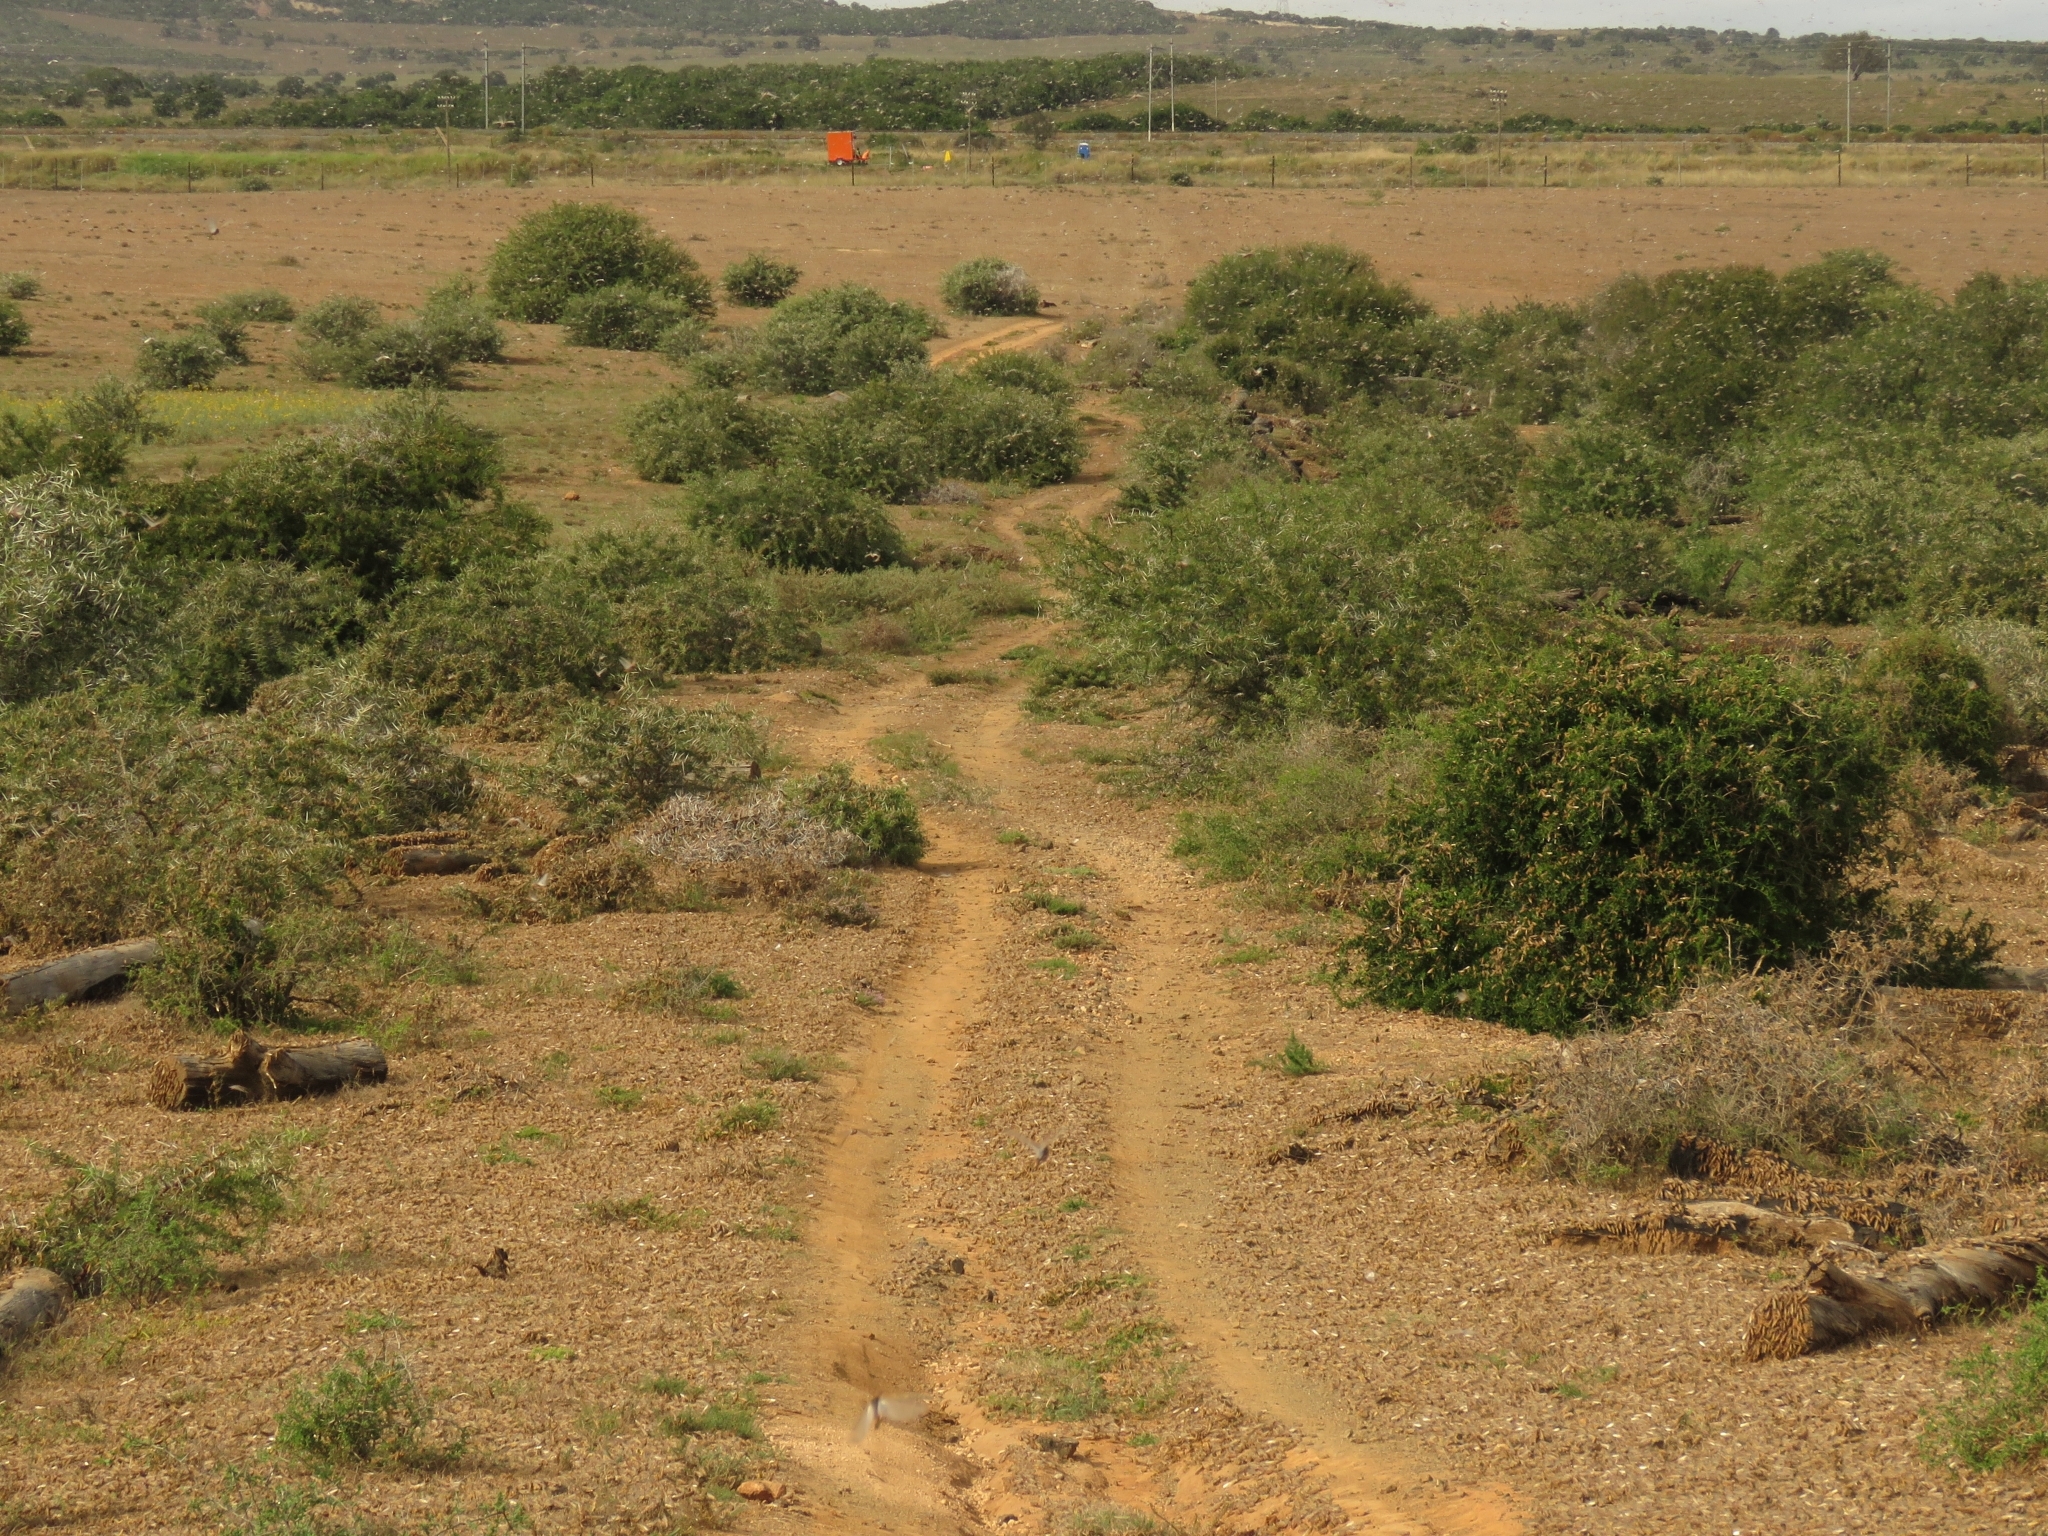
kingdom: Animalia
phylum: Arthropoda
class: Insecta
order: Orthoptera
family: Acrididae
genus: Locustana
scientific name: Locustana pardalina
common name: Brown locust
